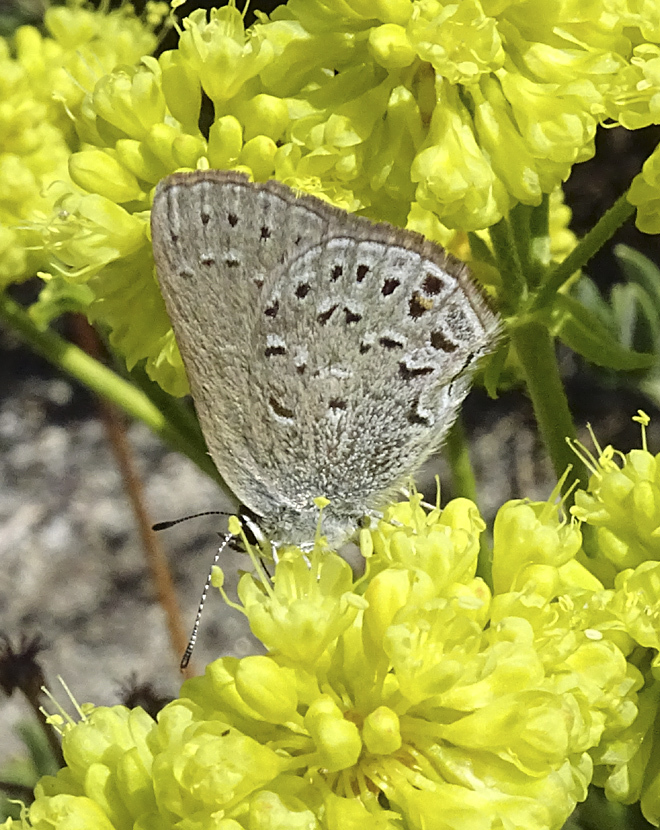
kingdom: Animalia
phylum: Arthropoda
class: Insecta
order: Lepidoptera
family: Lycaenidae
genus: Satyrium
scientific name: Satyrium behrii
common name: Behr's hairstreak
